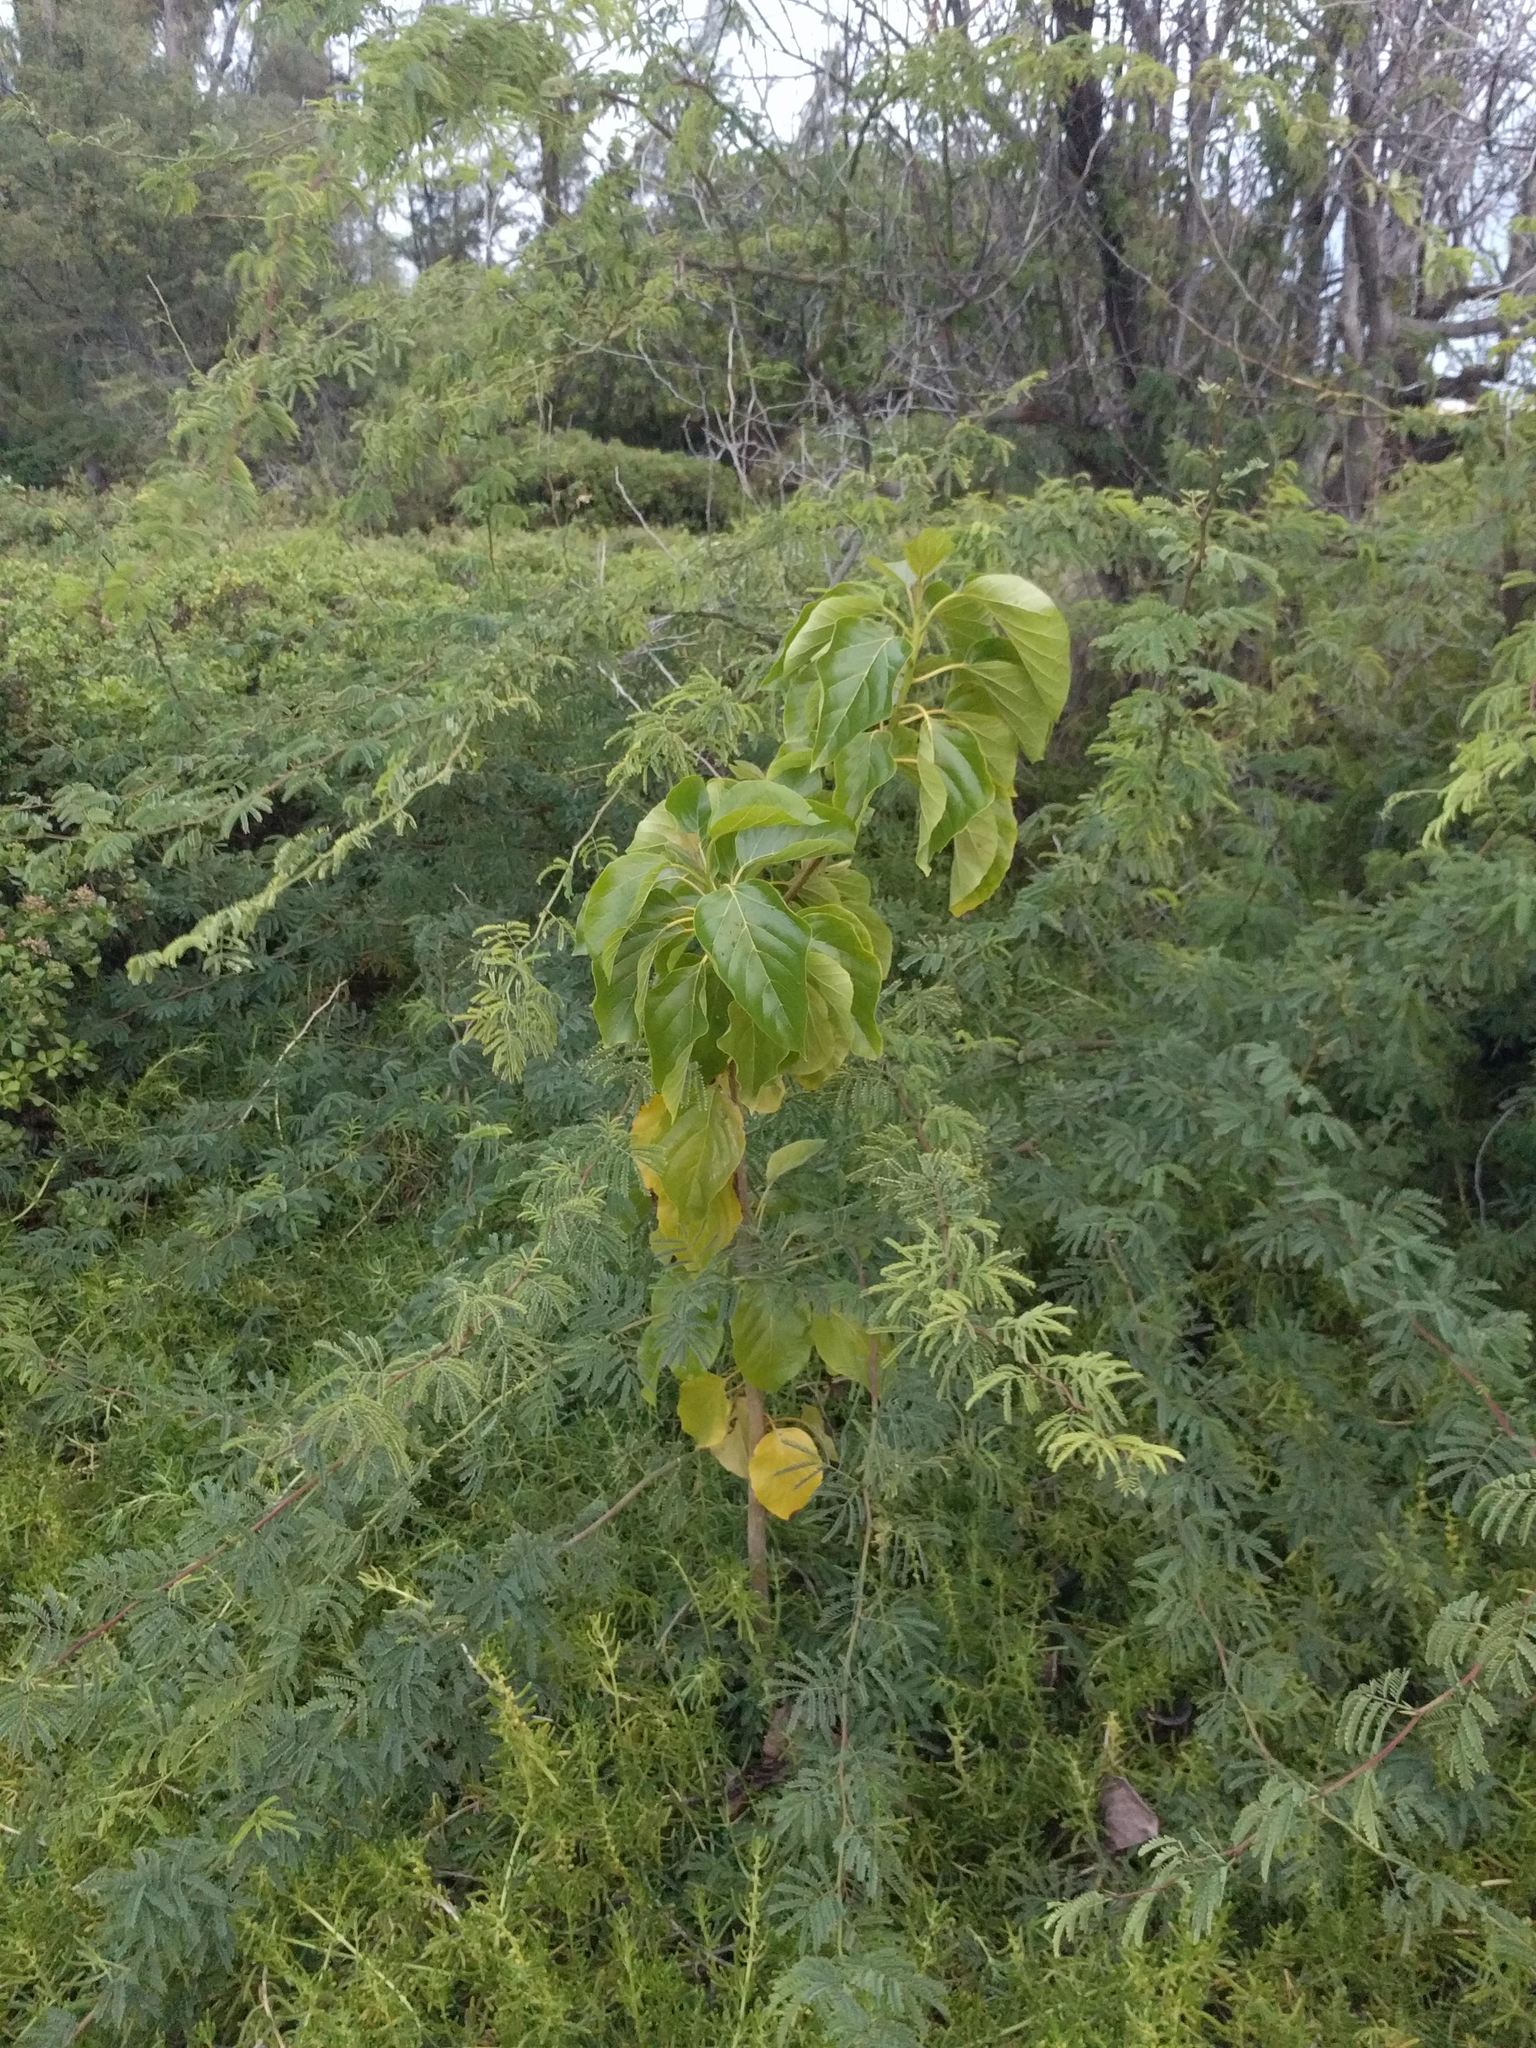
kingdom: Plantae
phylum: Tracheophyta
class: Magnoliopsida
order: Boraginales
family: Cordiaceae
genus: Cordia
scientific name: Cordia subcordata
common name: Mareer
